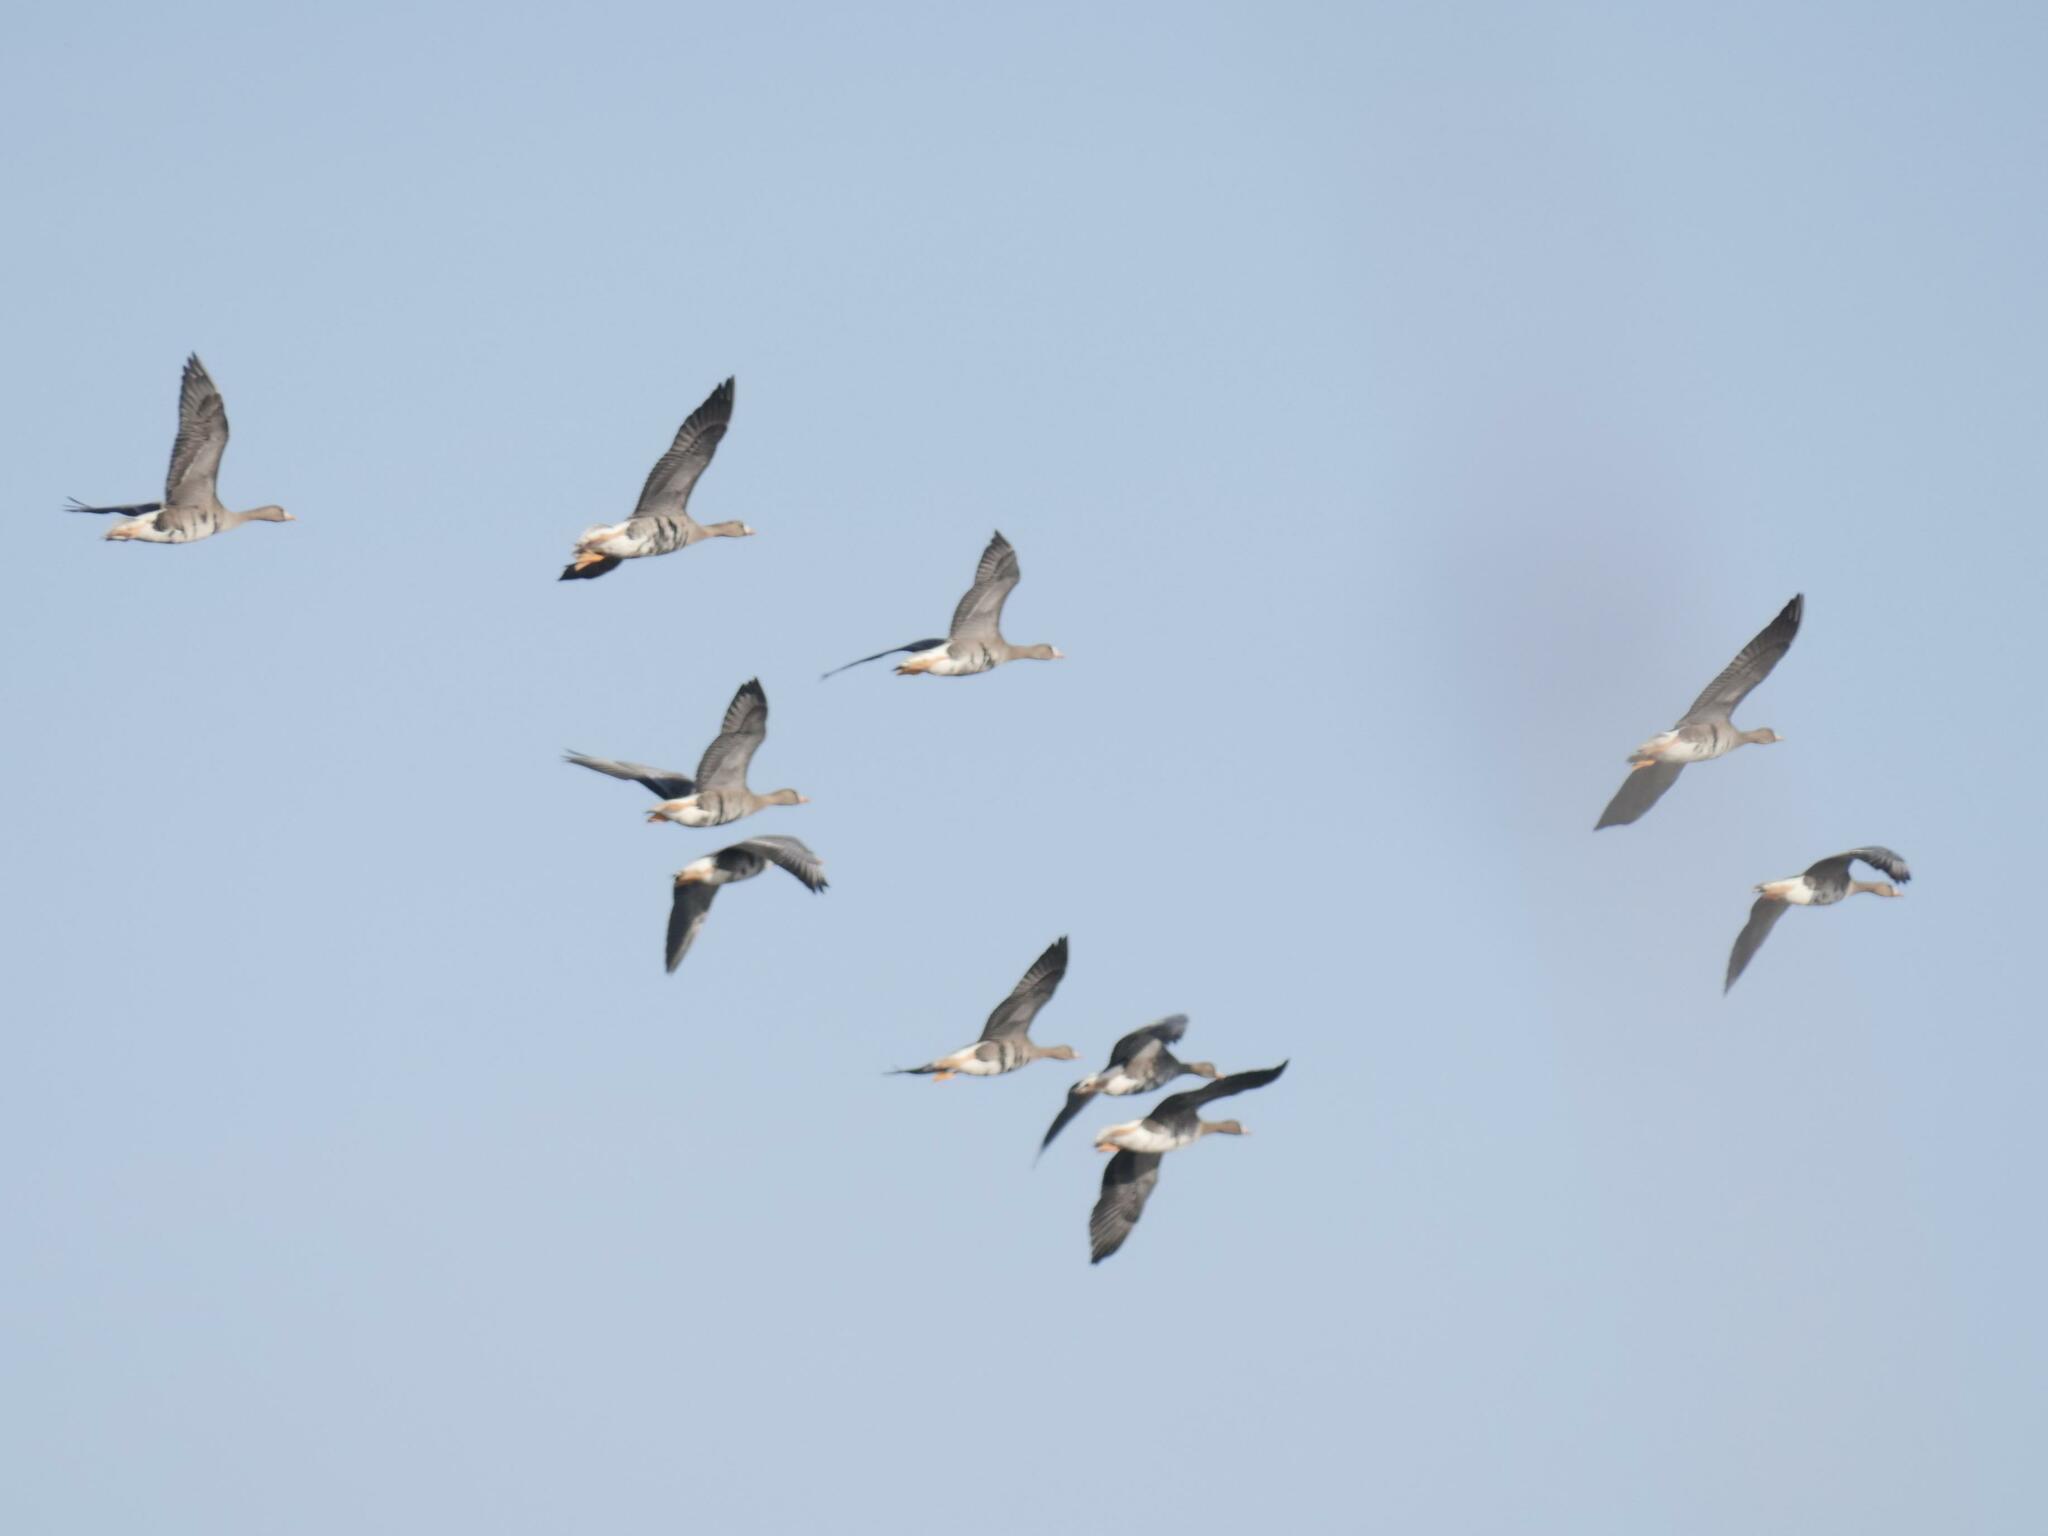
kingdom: Animalia
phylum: Chordata
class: Aves
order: Anseriformes
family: Anatidae
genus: Anser
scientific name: Anser albifrons
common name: Greater white-fronted goose
